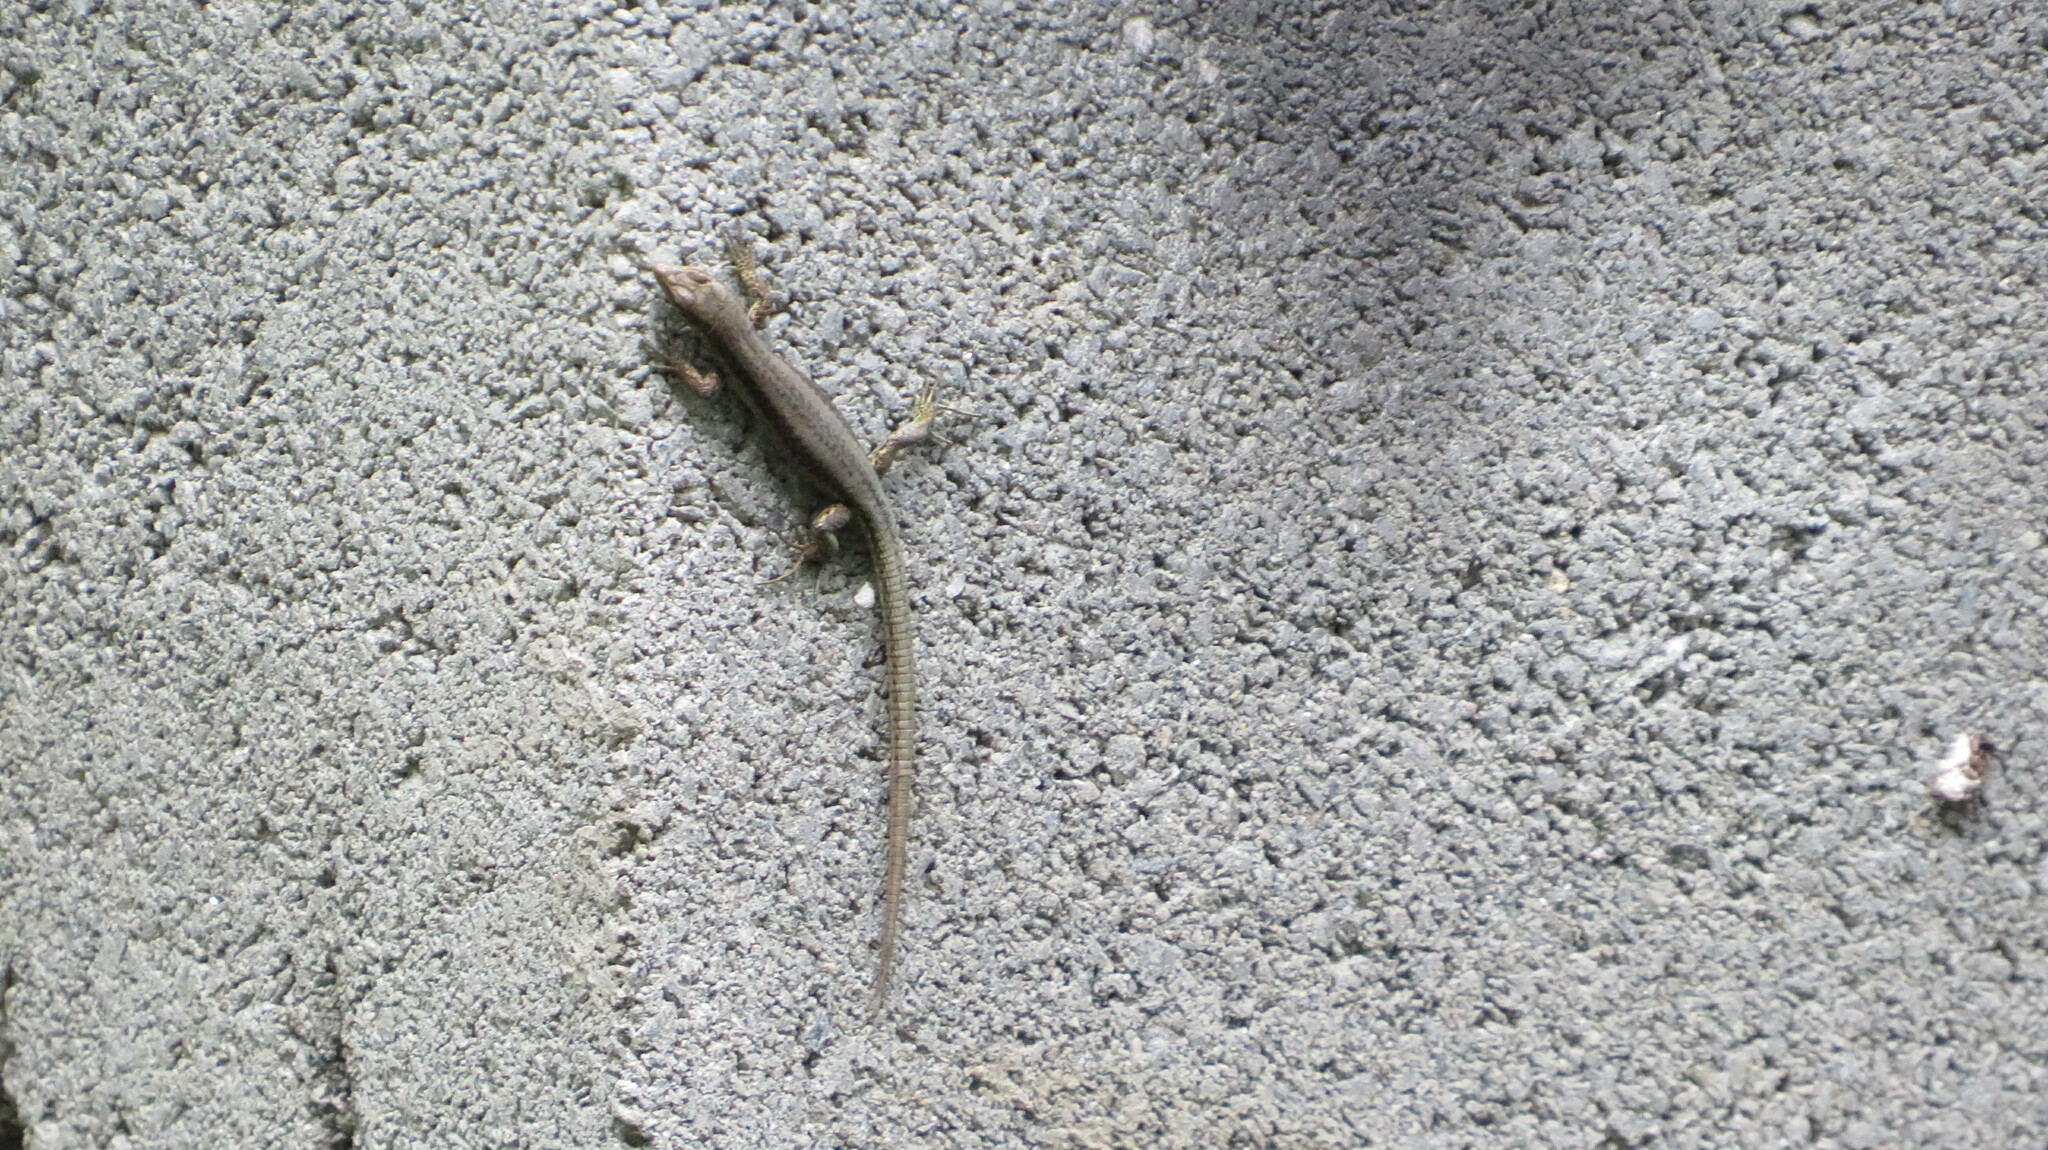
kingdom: Animalia
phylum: Chordata
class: Squamata
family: Lacertidae
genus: Darevskia
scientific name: Darevskia caucasica
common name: Caucasian llzard
